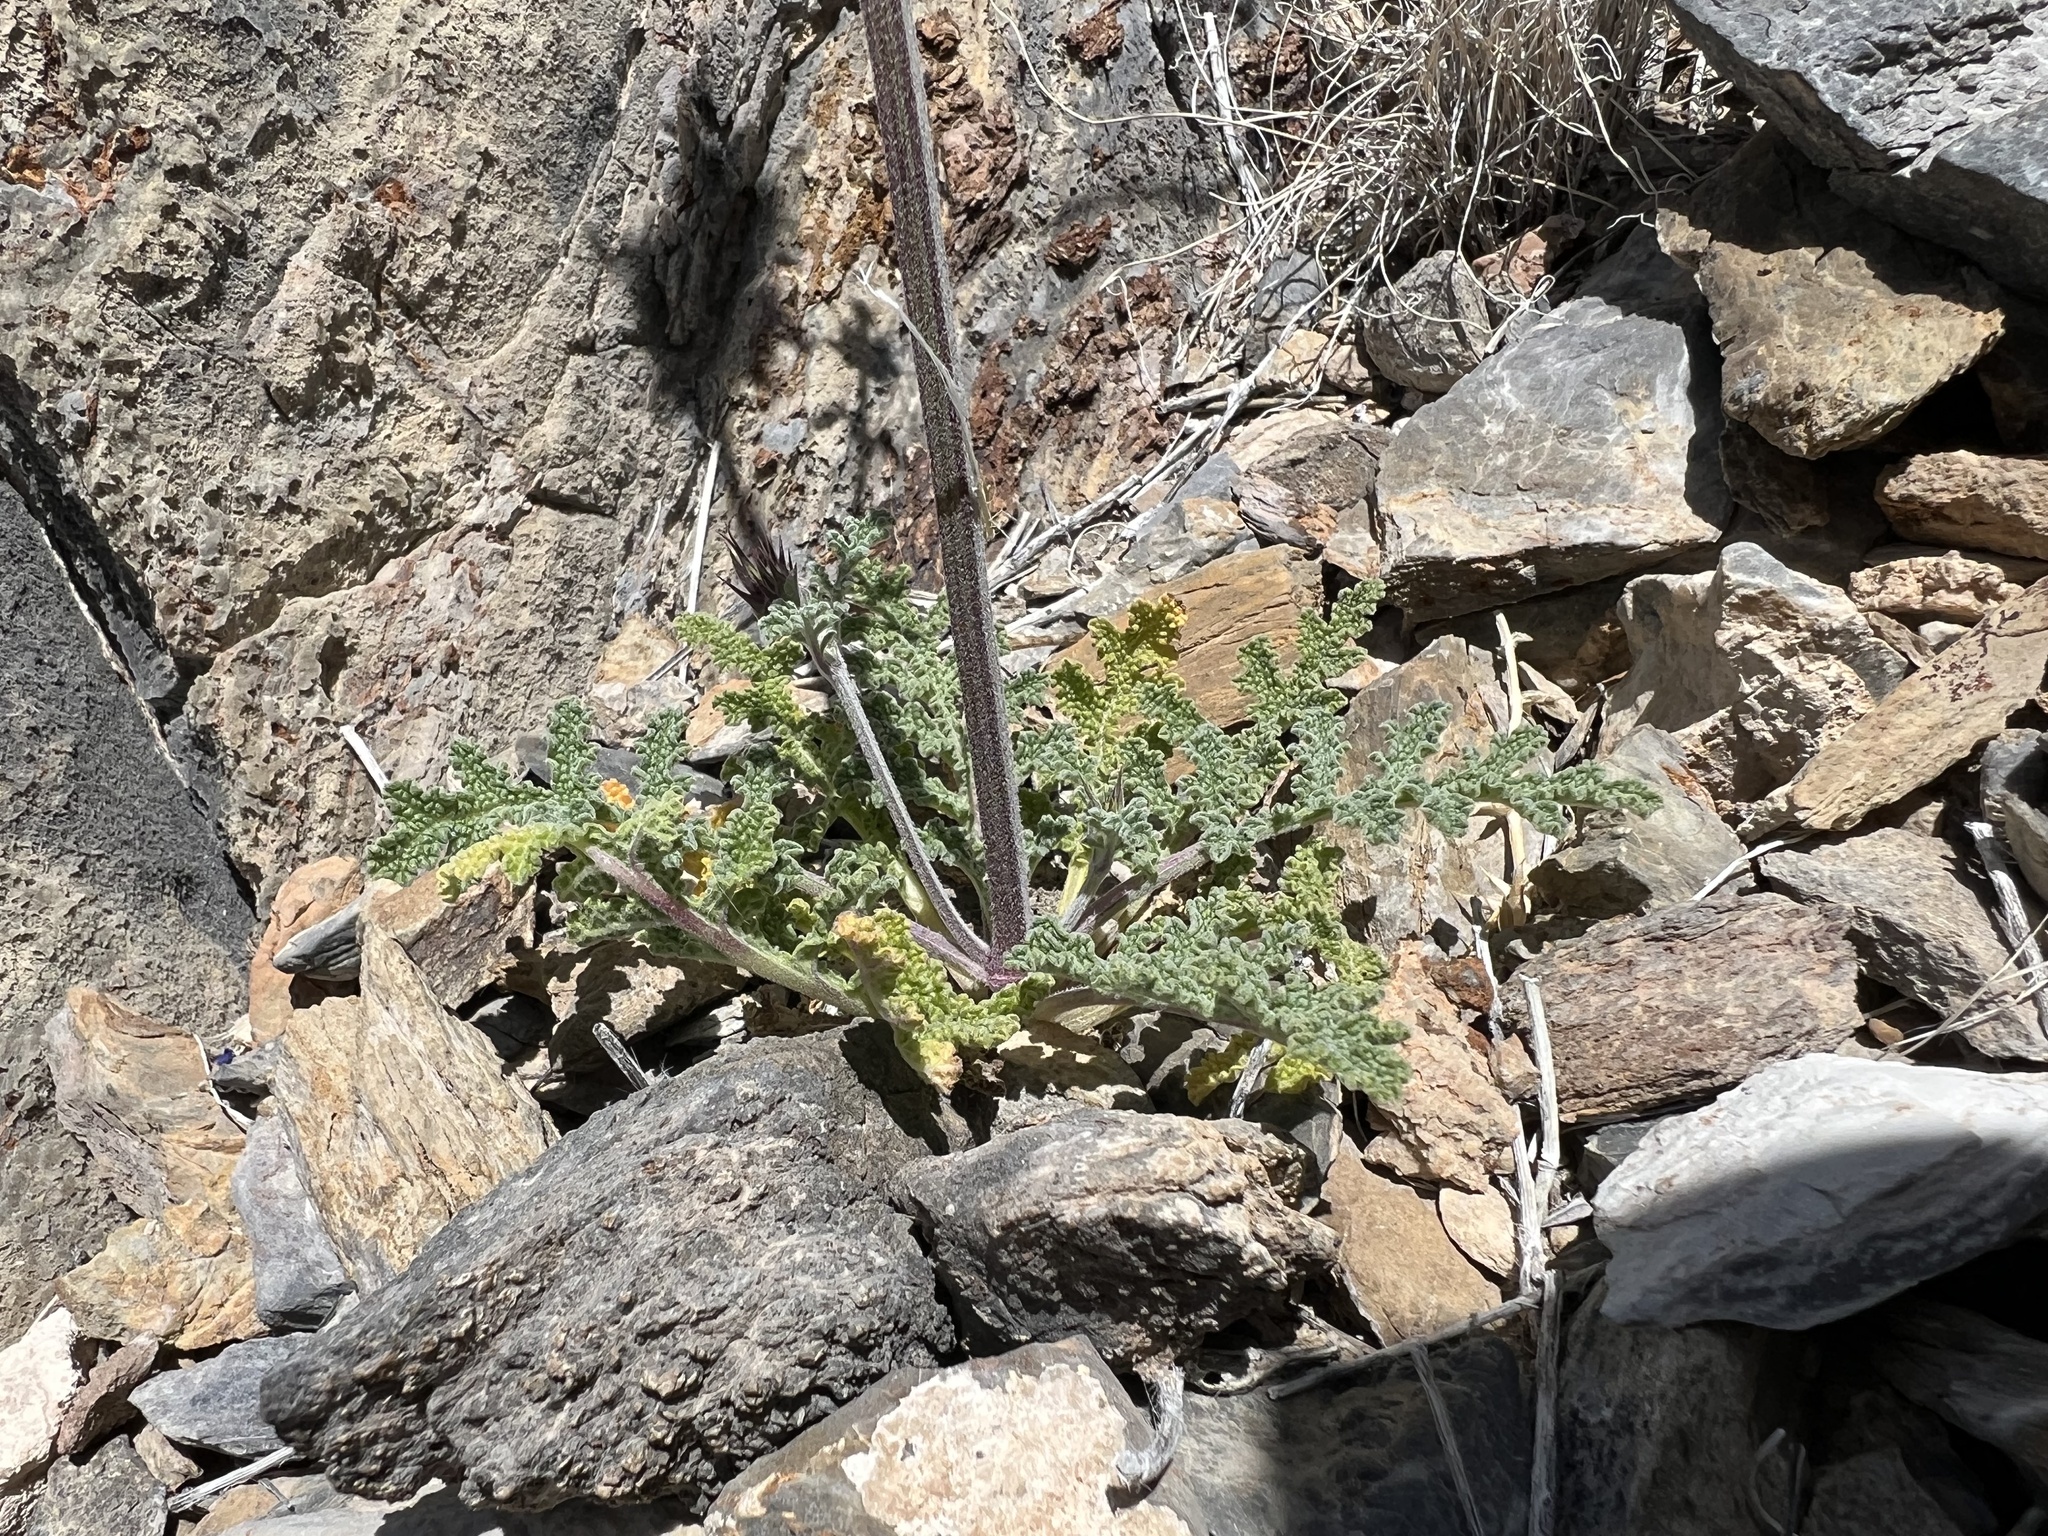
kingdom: Plantae
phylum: Tracheophyta
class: Magnoliopsida
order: Lamiales
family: Lamiaceae
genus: Salvia
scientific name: Salvia columbariae
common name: Chia
